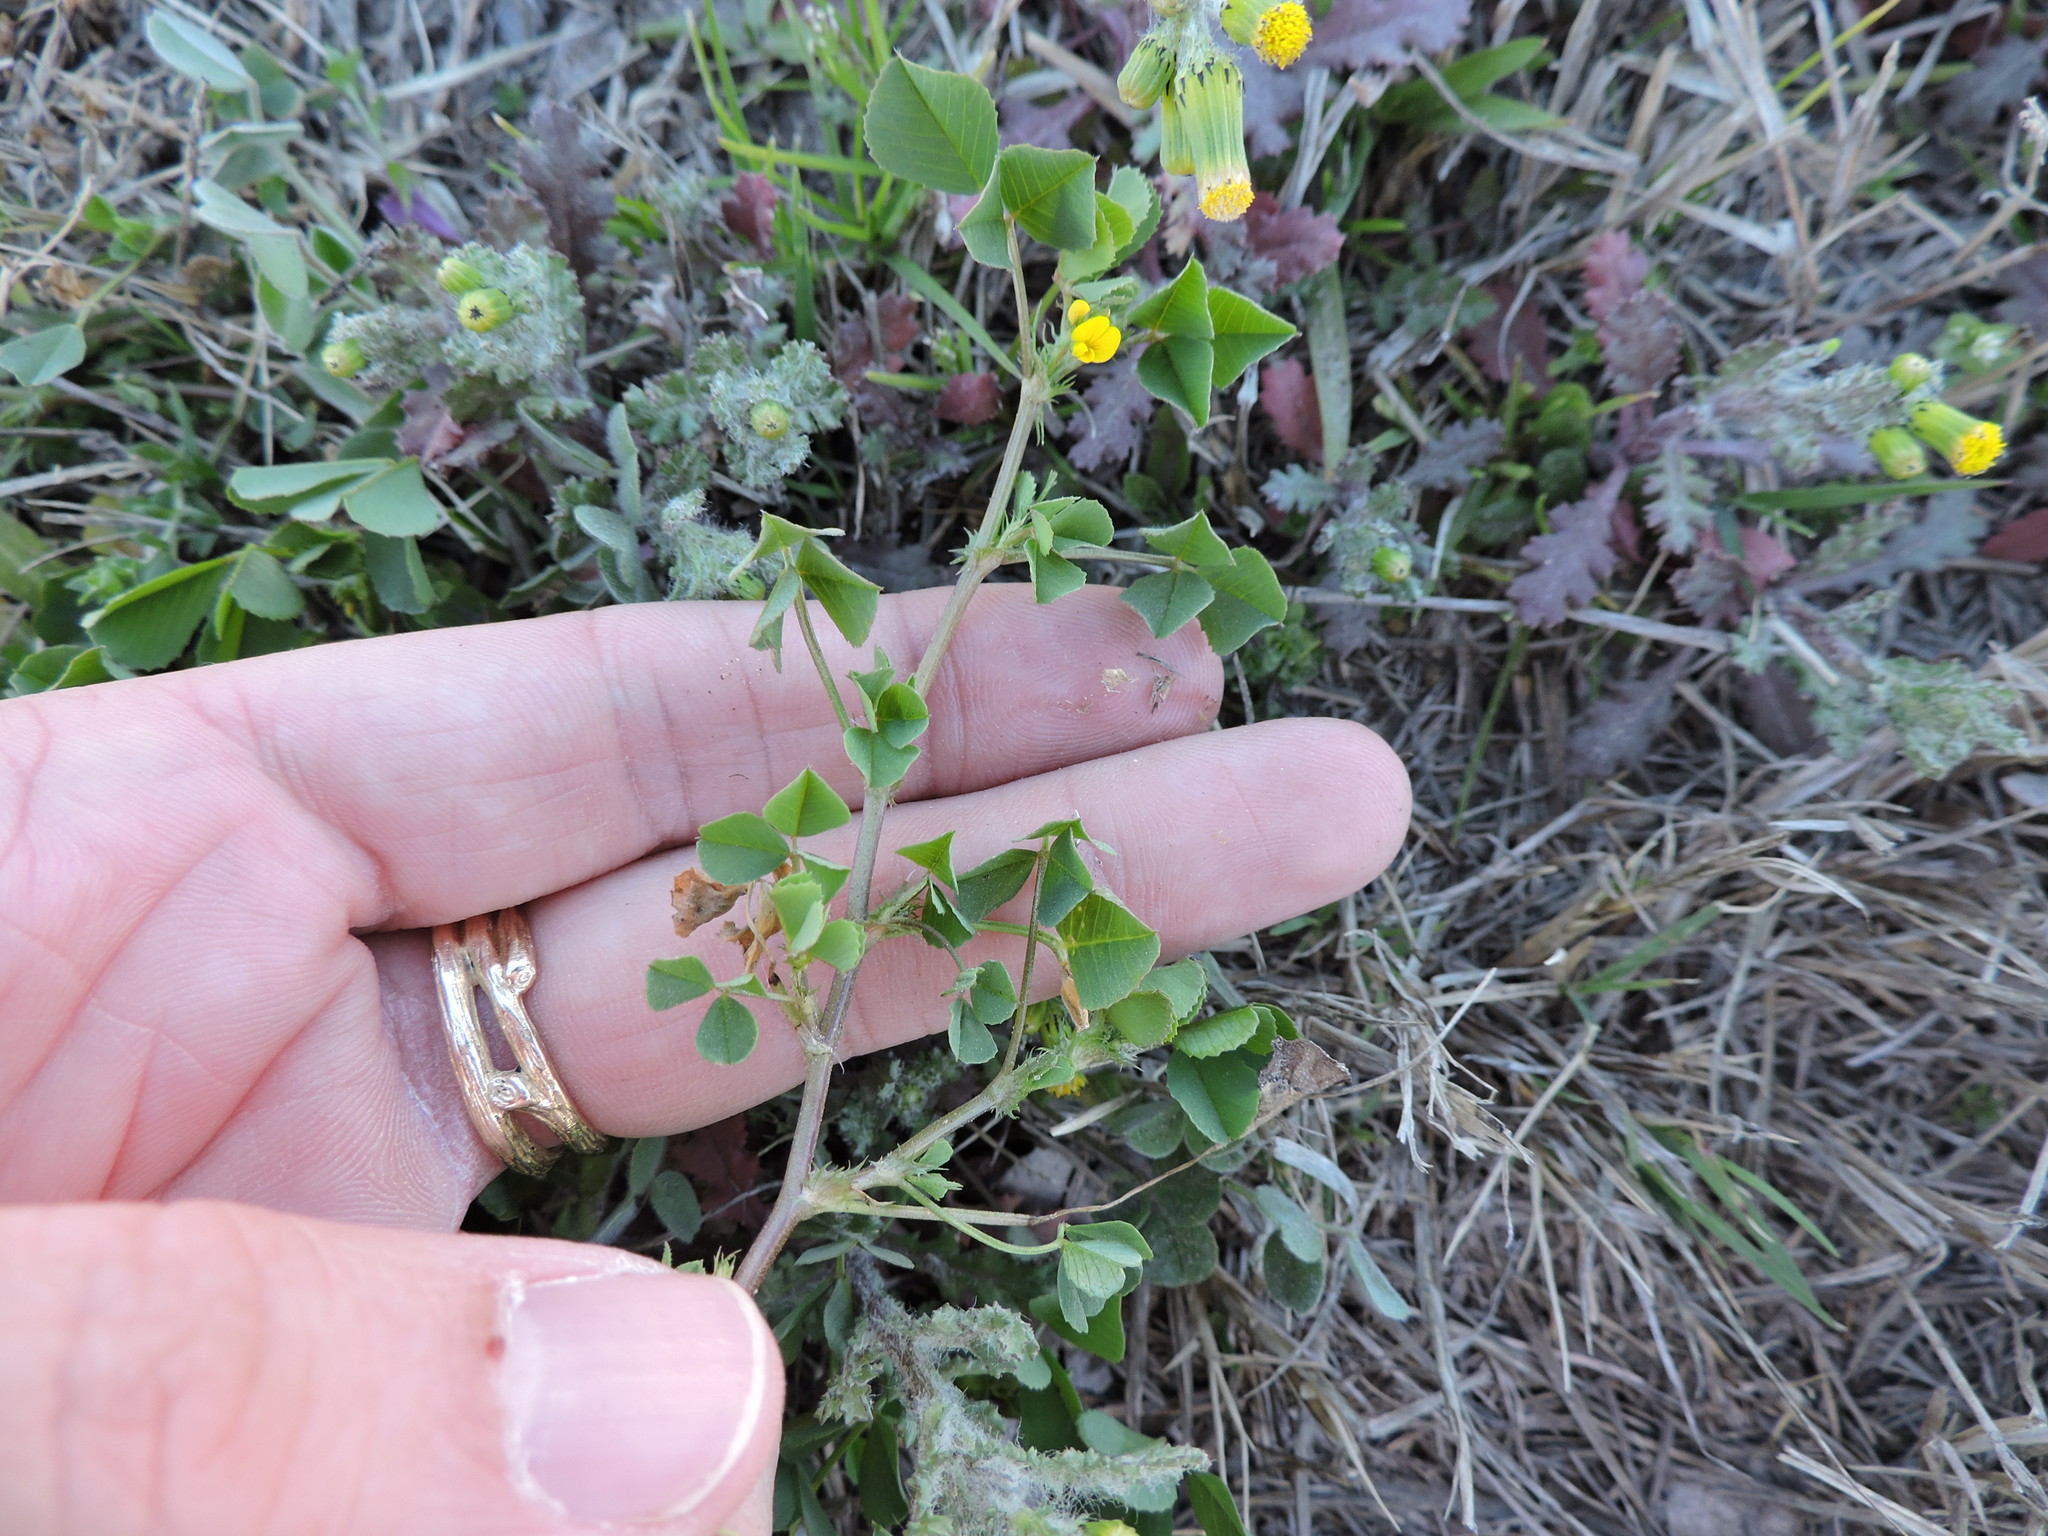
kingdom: Plantae
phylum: Tracheophyta
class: Magnoliopsida
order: Fabales
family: Fabaceae
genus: Medicago
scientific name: Medicago polymorpha
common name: Burclover
